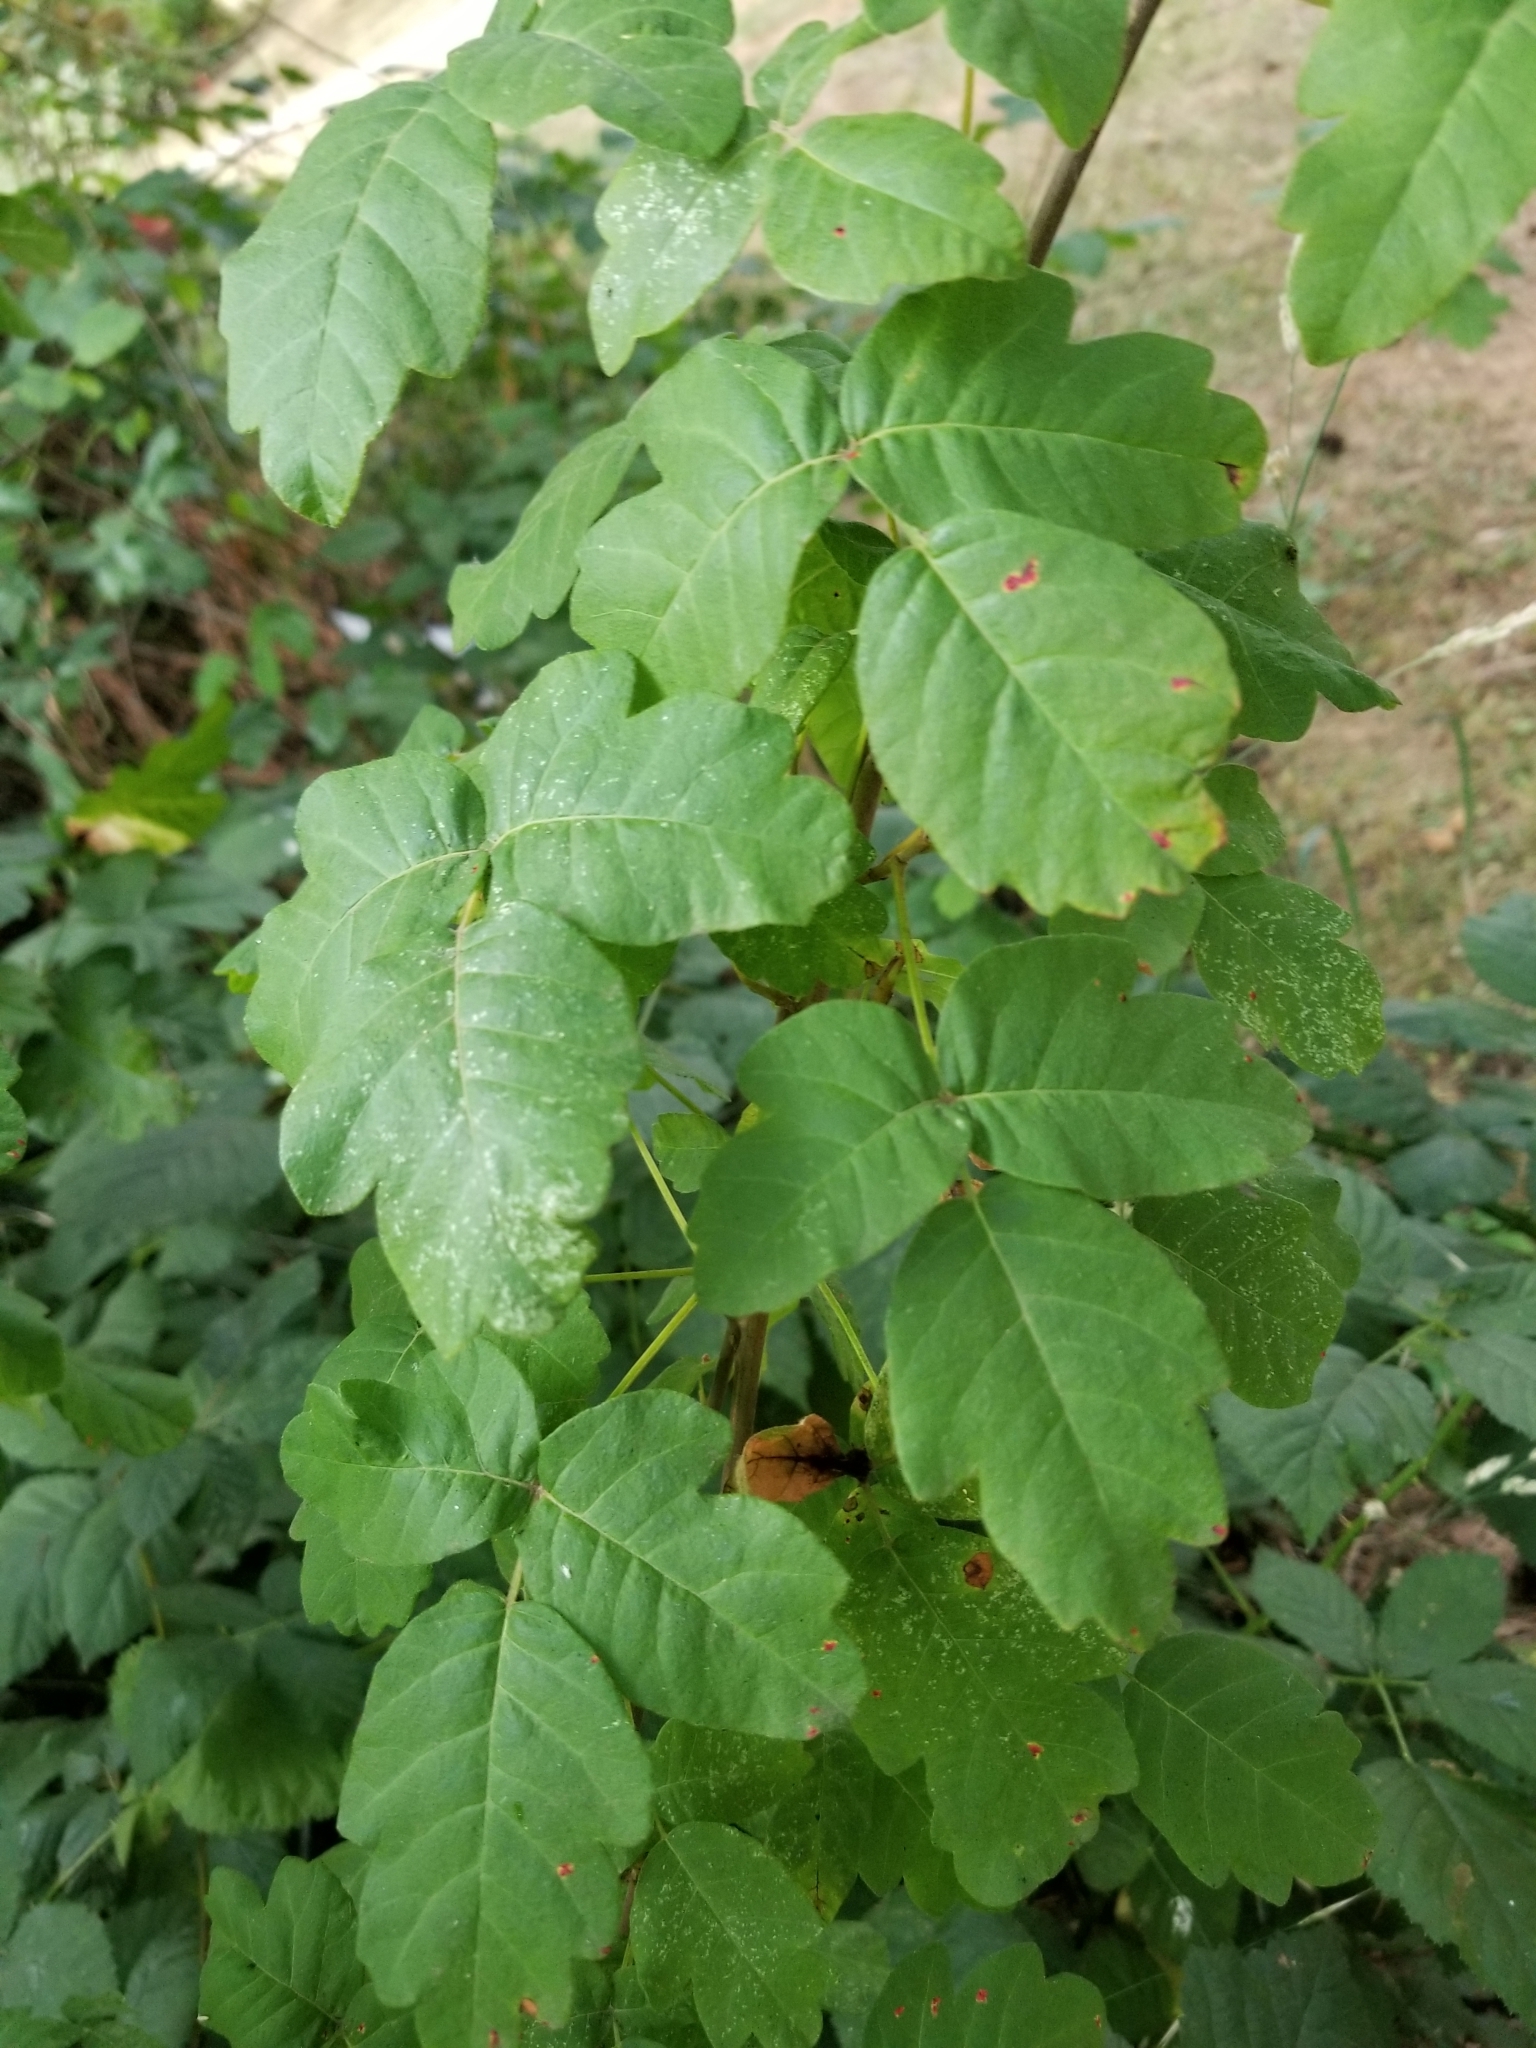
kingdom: Plantae
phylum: Tracheophyta
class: Magnoliopsida
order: Sapindales
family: Anacardiaceae
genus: Toxicodendron
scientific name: Toxicodendron diversilobum
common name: Pacific poison-oak
